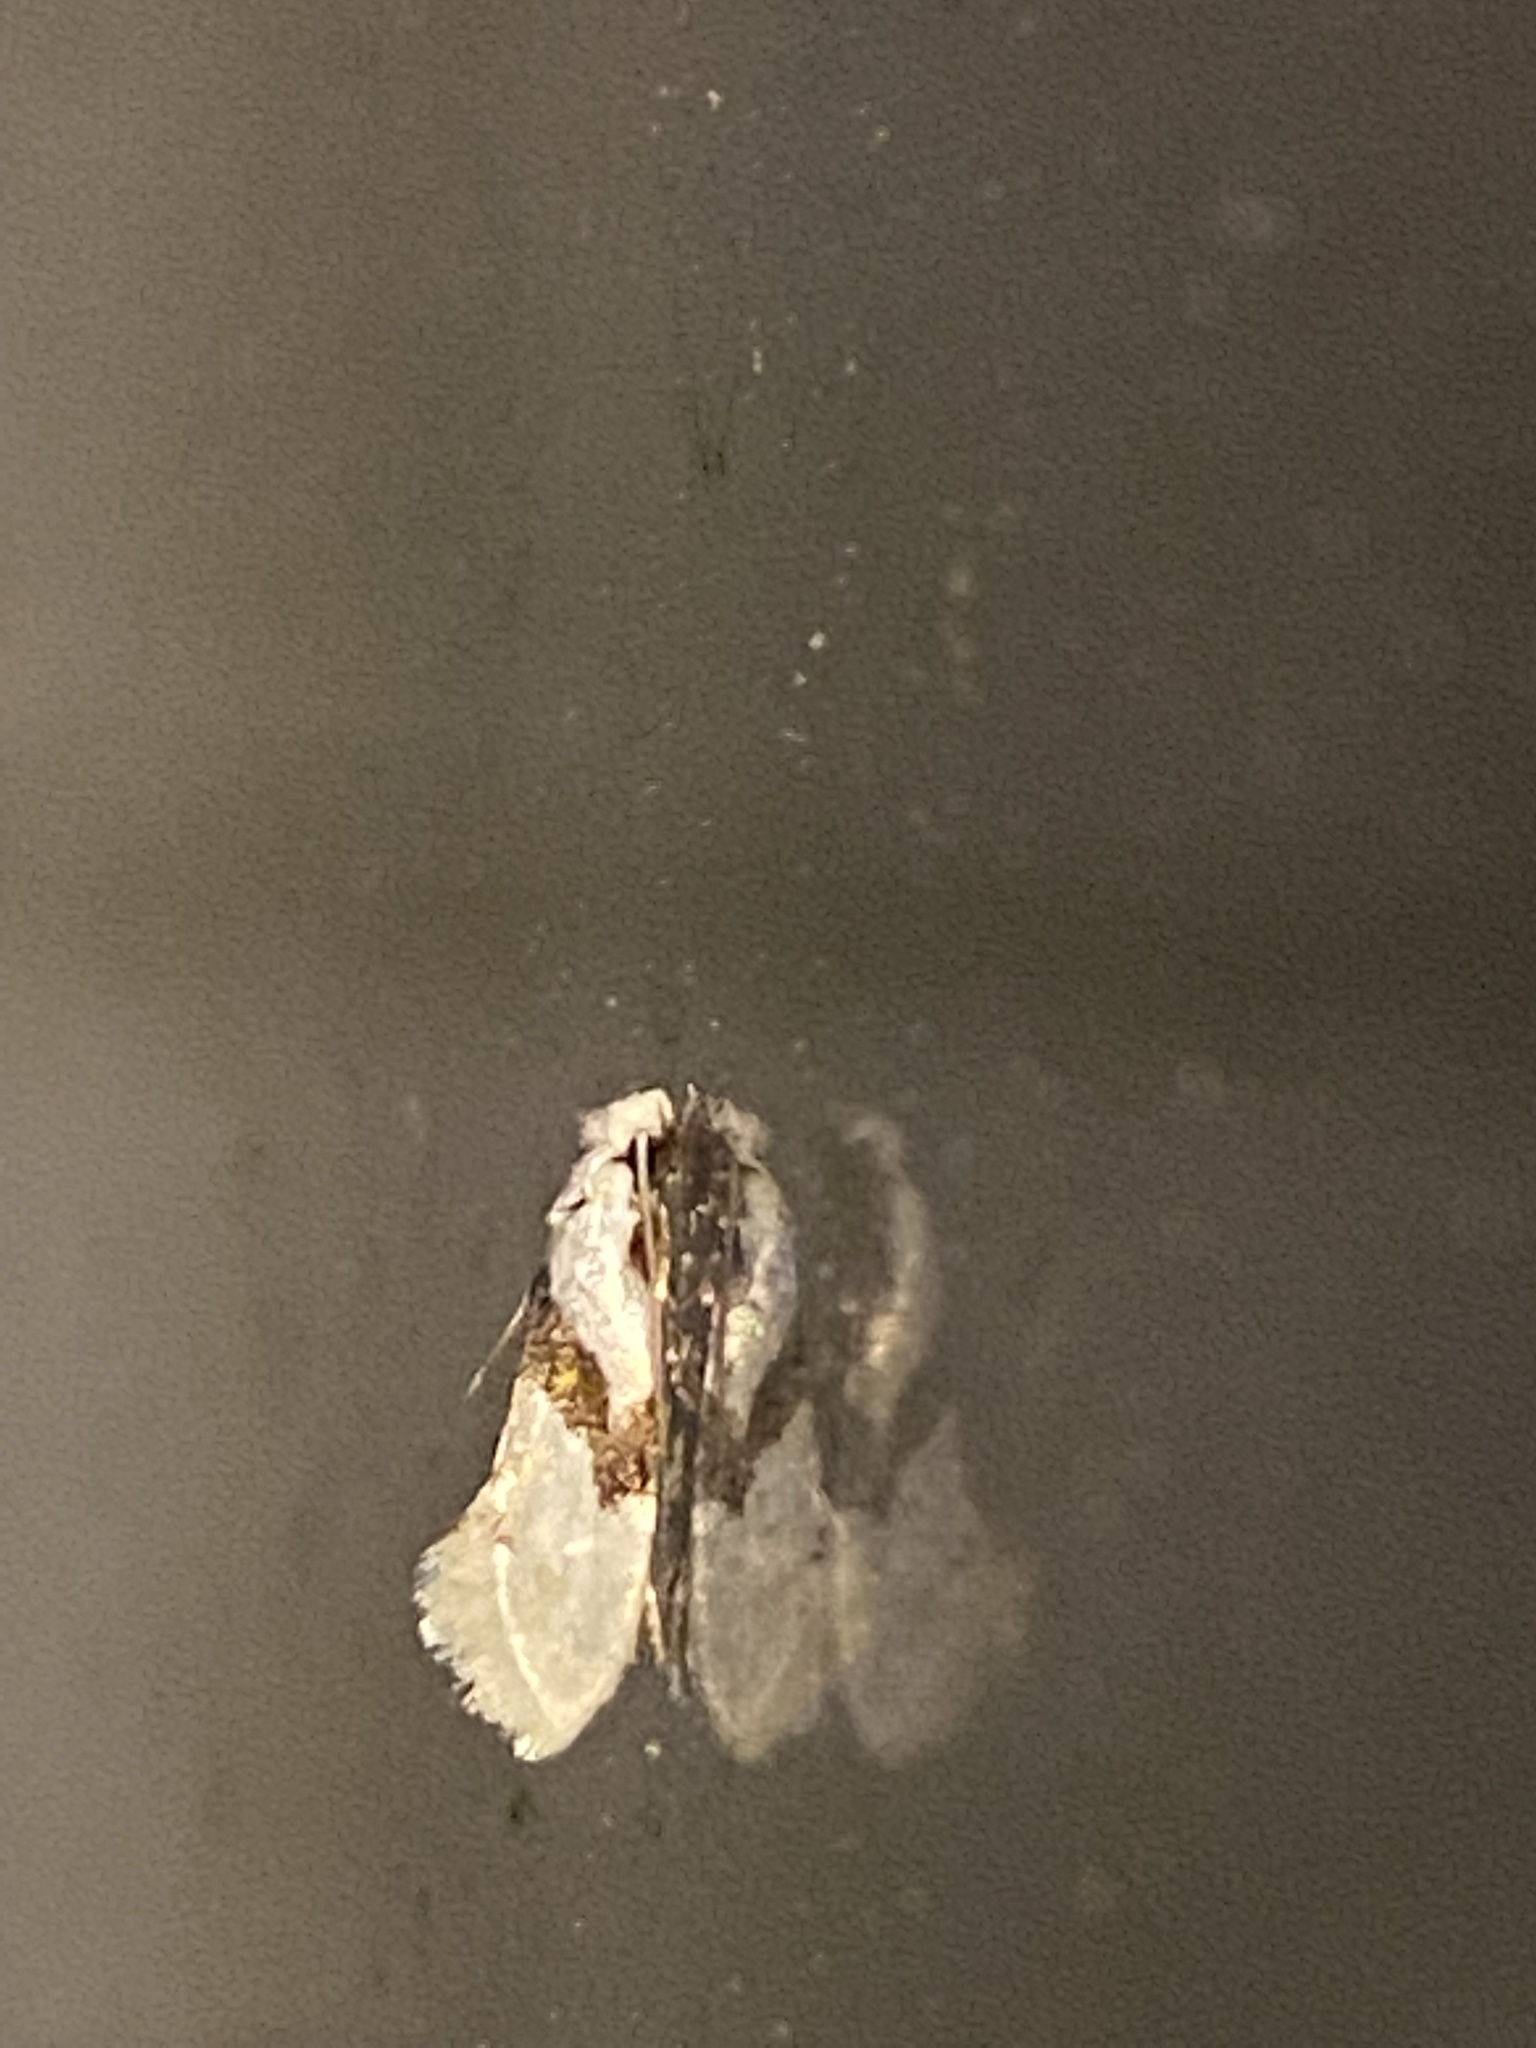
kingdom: Animalia
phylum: Arthropoda
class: Insecta
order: Lepidoptera
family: Tineidae
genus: Nemapogon
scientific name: Nemapogon clematella
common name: Barred white clothes
